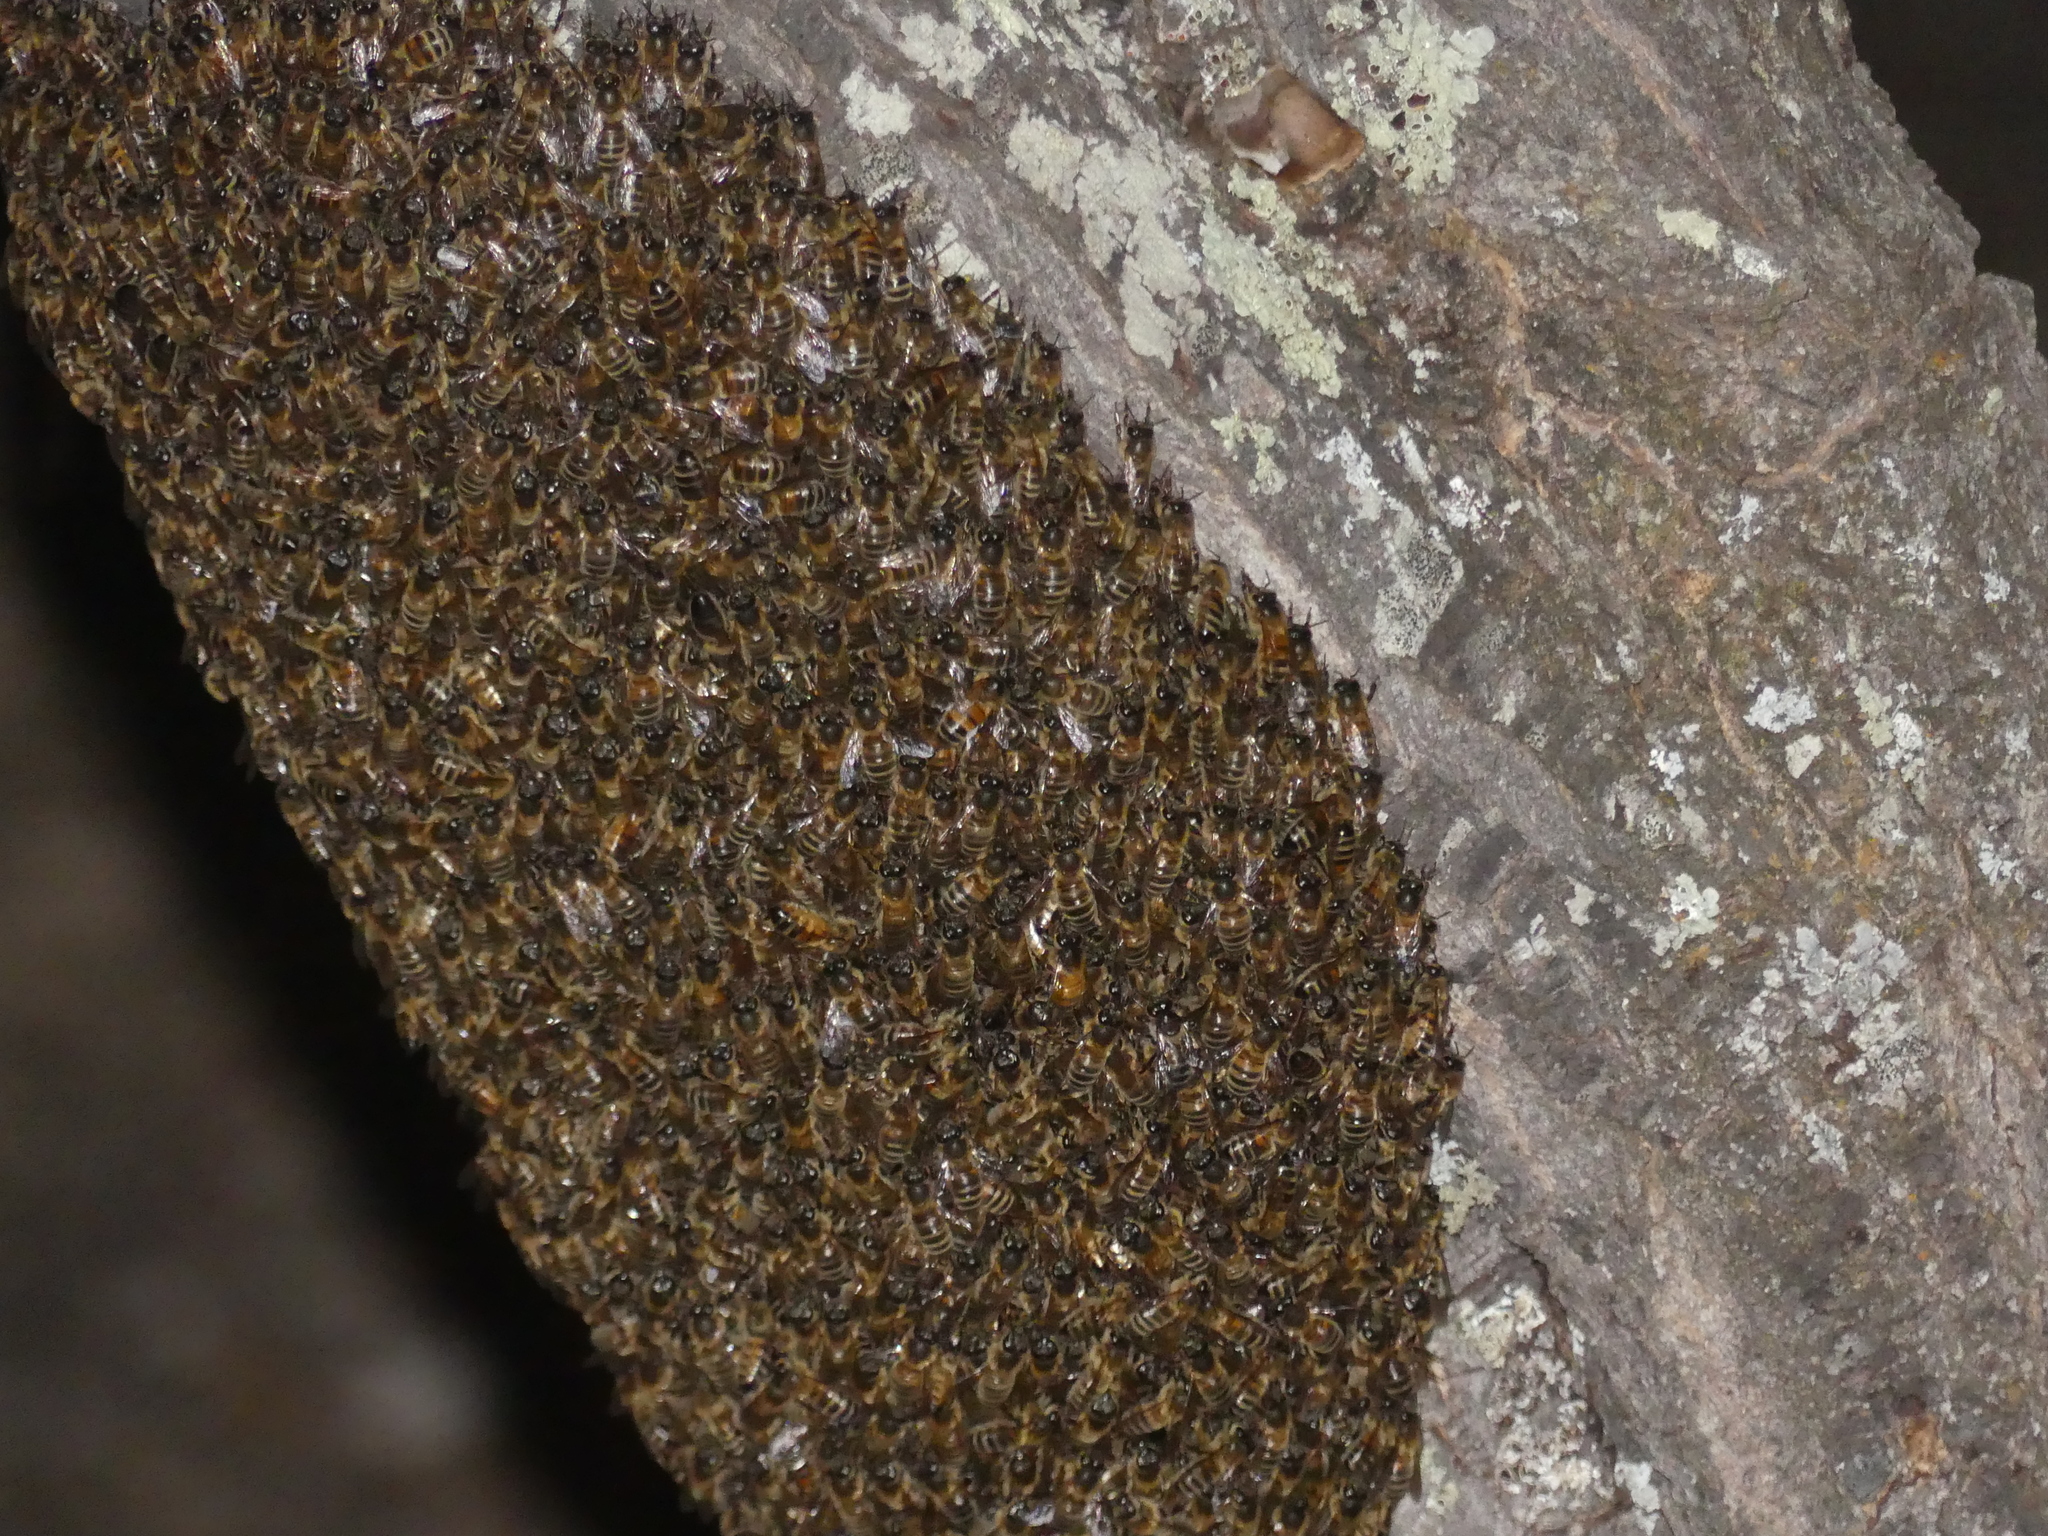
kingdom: Animalia
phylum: Arthropoda
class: Insecta
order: Hymenoptera
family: Apidae
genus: Apis
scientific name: Apis mellifera
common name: Honey bee
